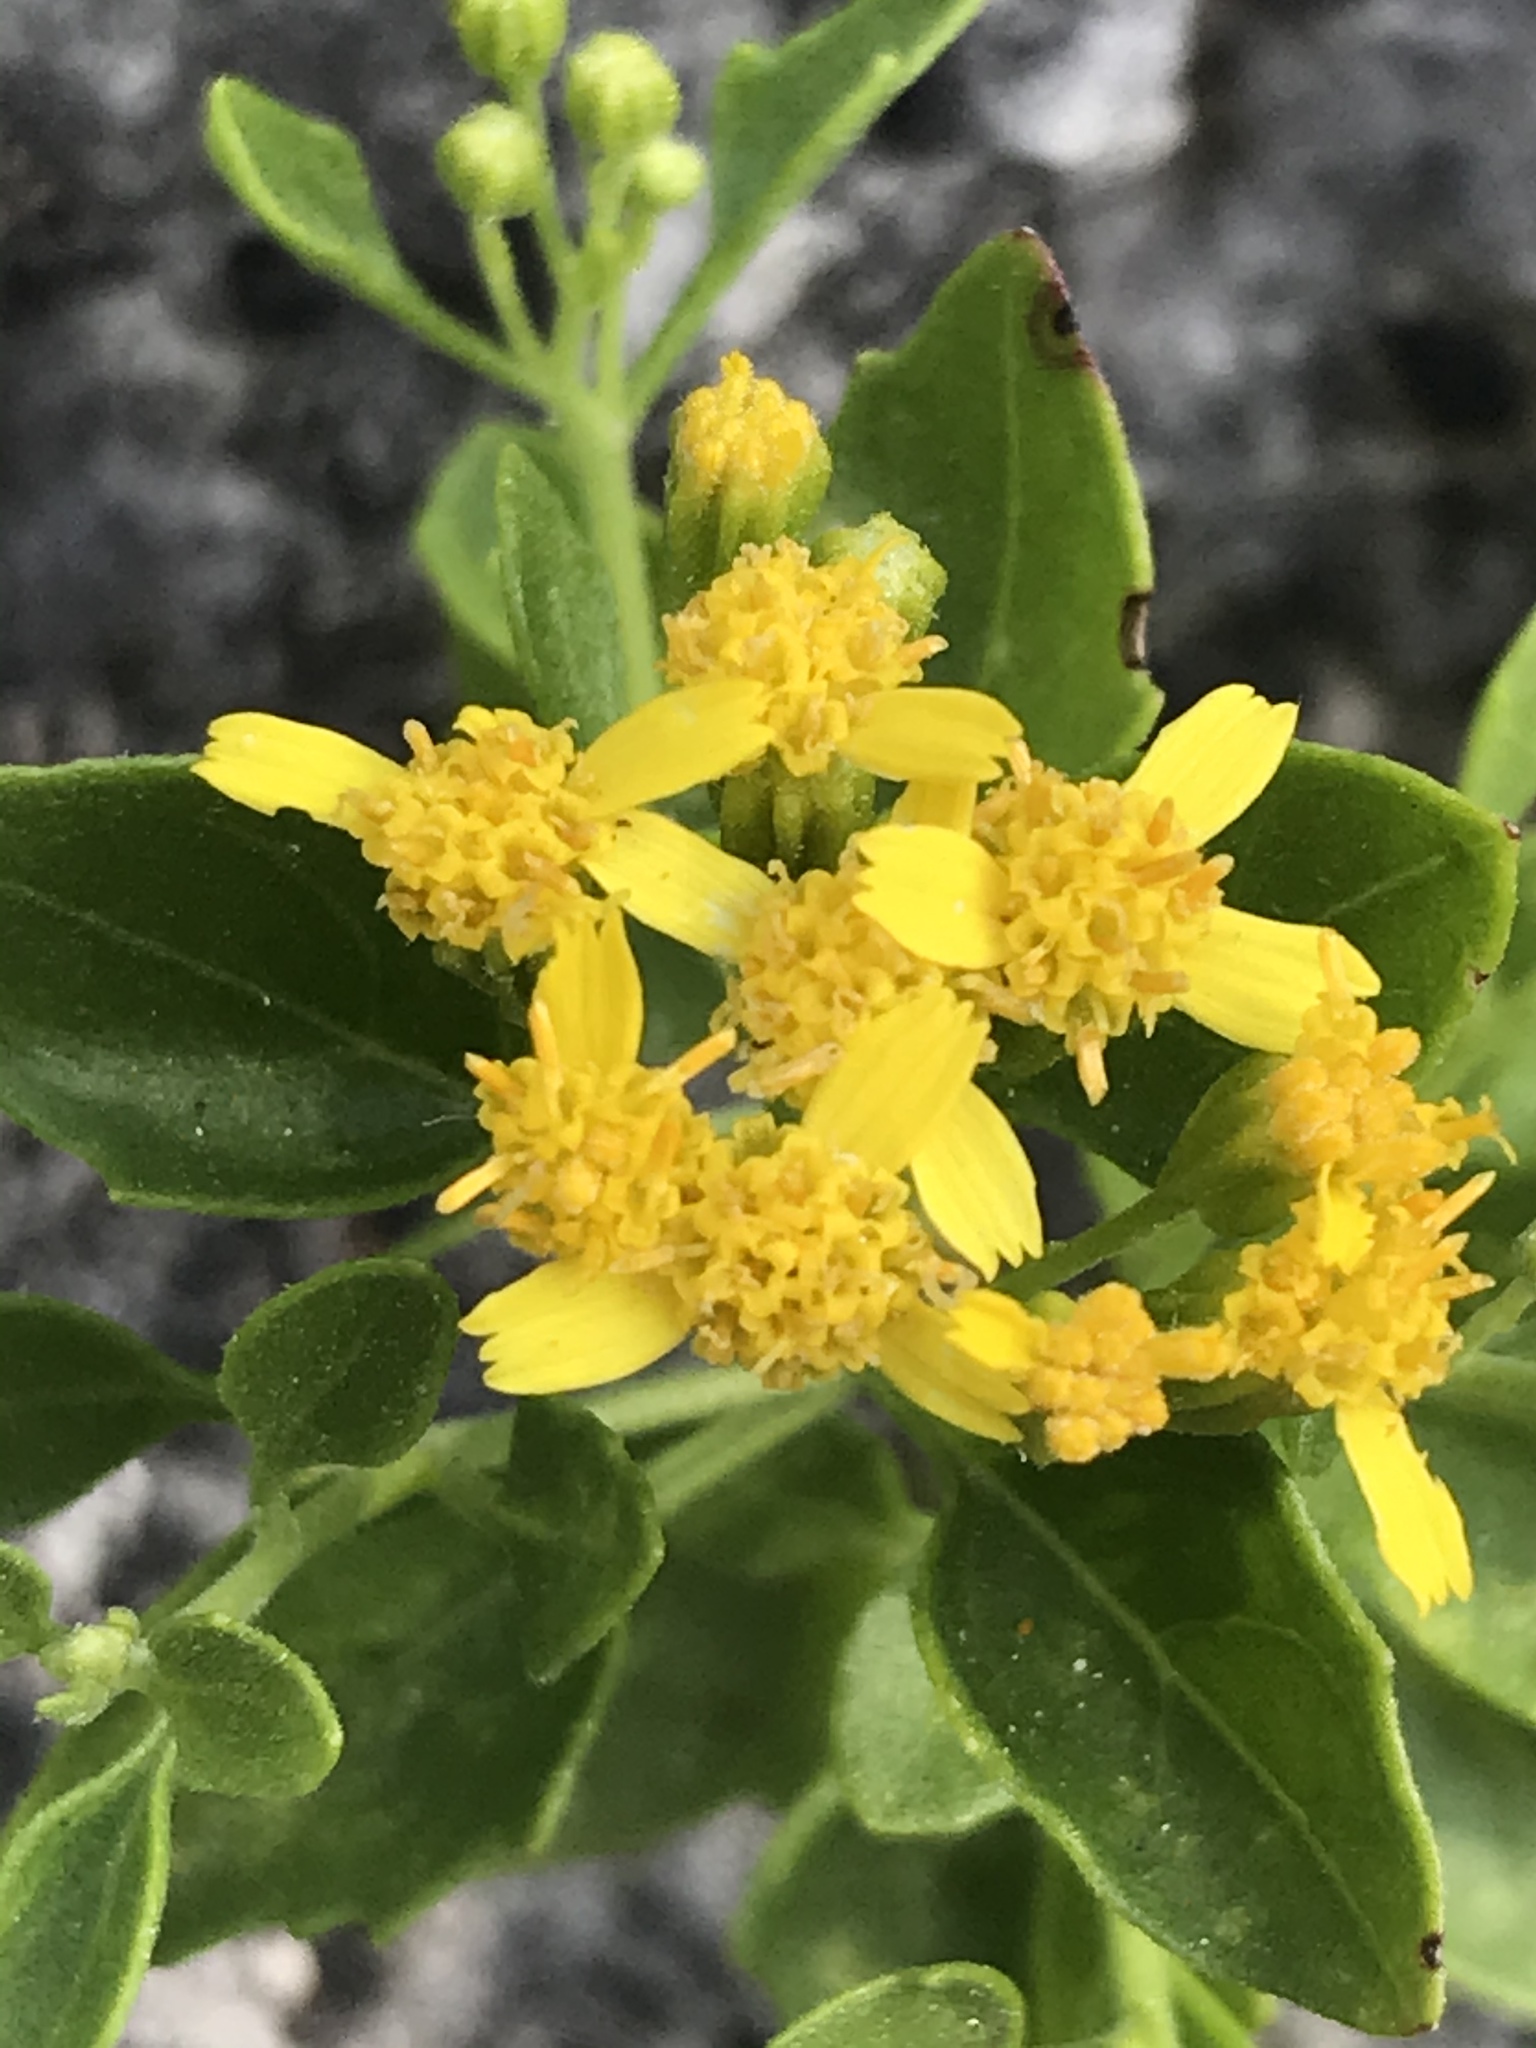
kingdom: Plantae
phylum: Tracheophyta
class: Magnoliopsida
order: Asterales
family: Asteraceae
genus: Laphamia
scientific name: Laphamia lindheimeri
